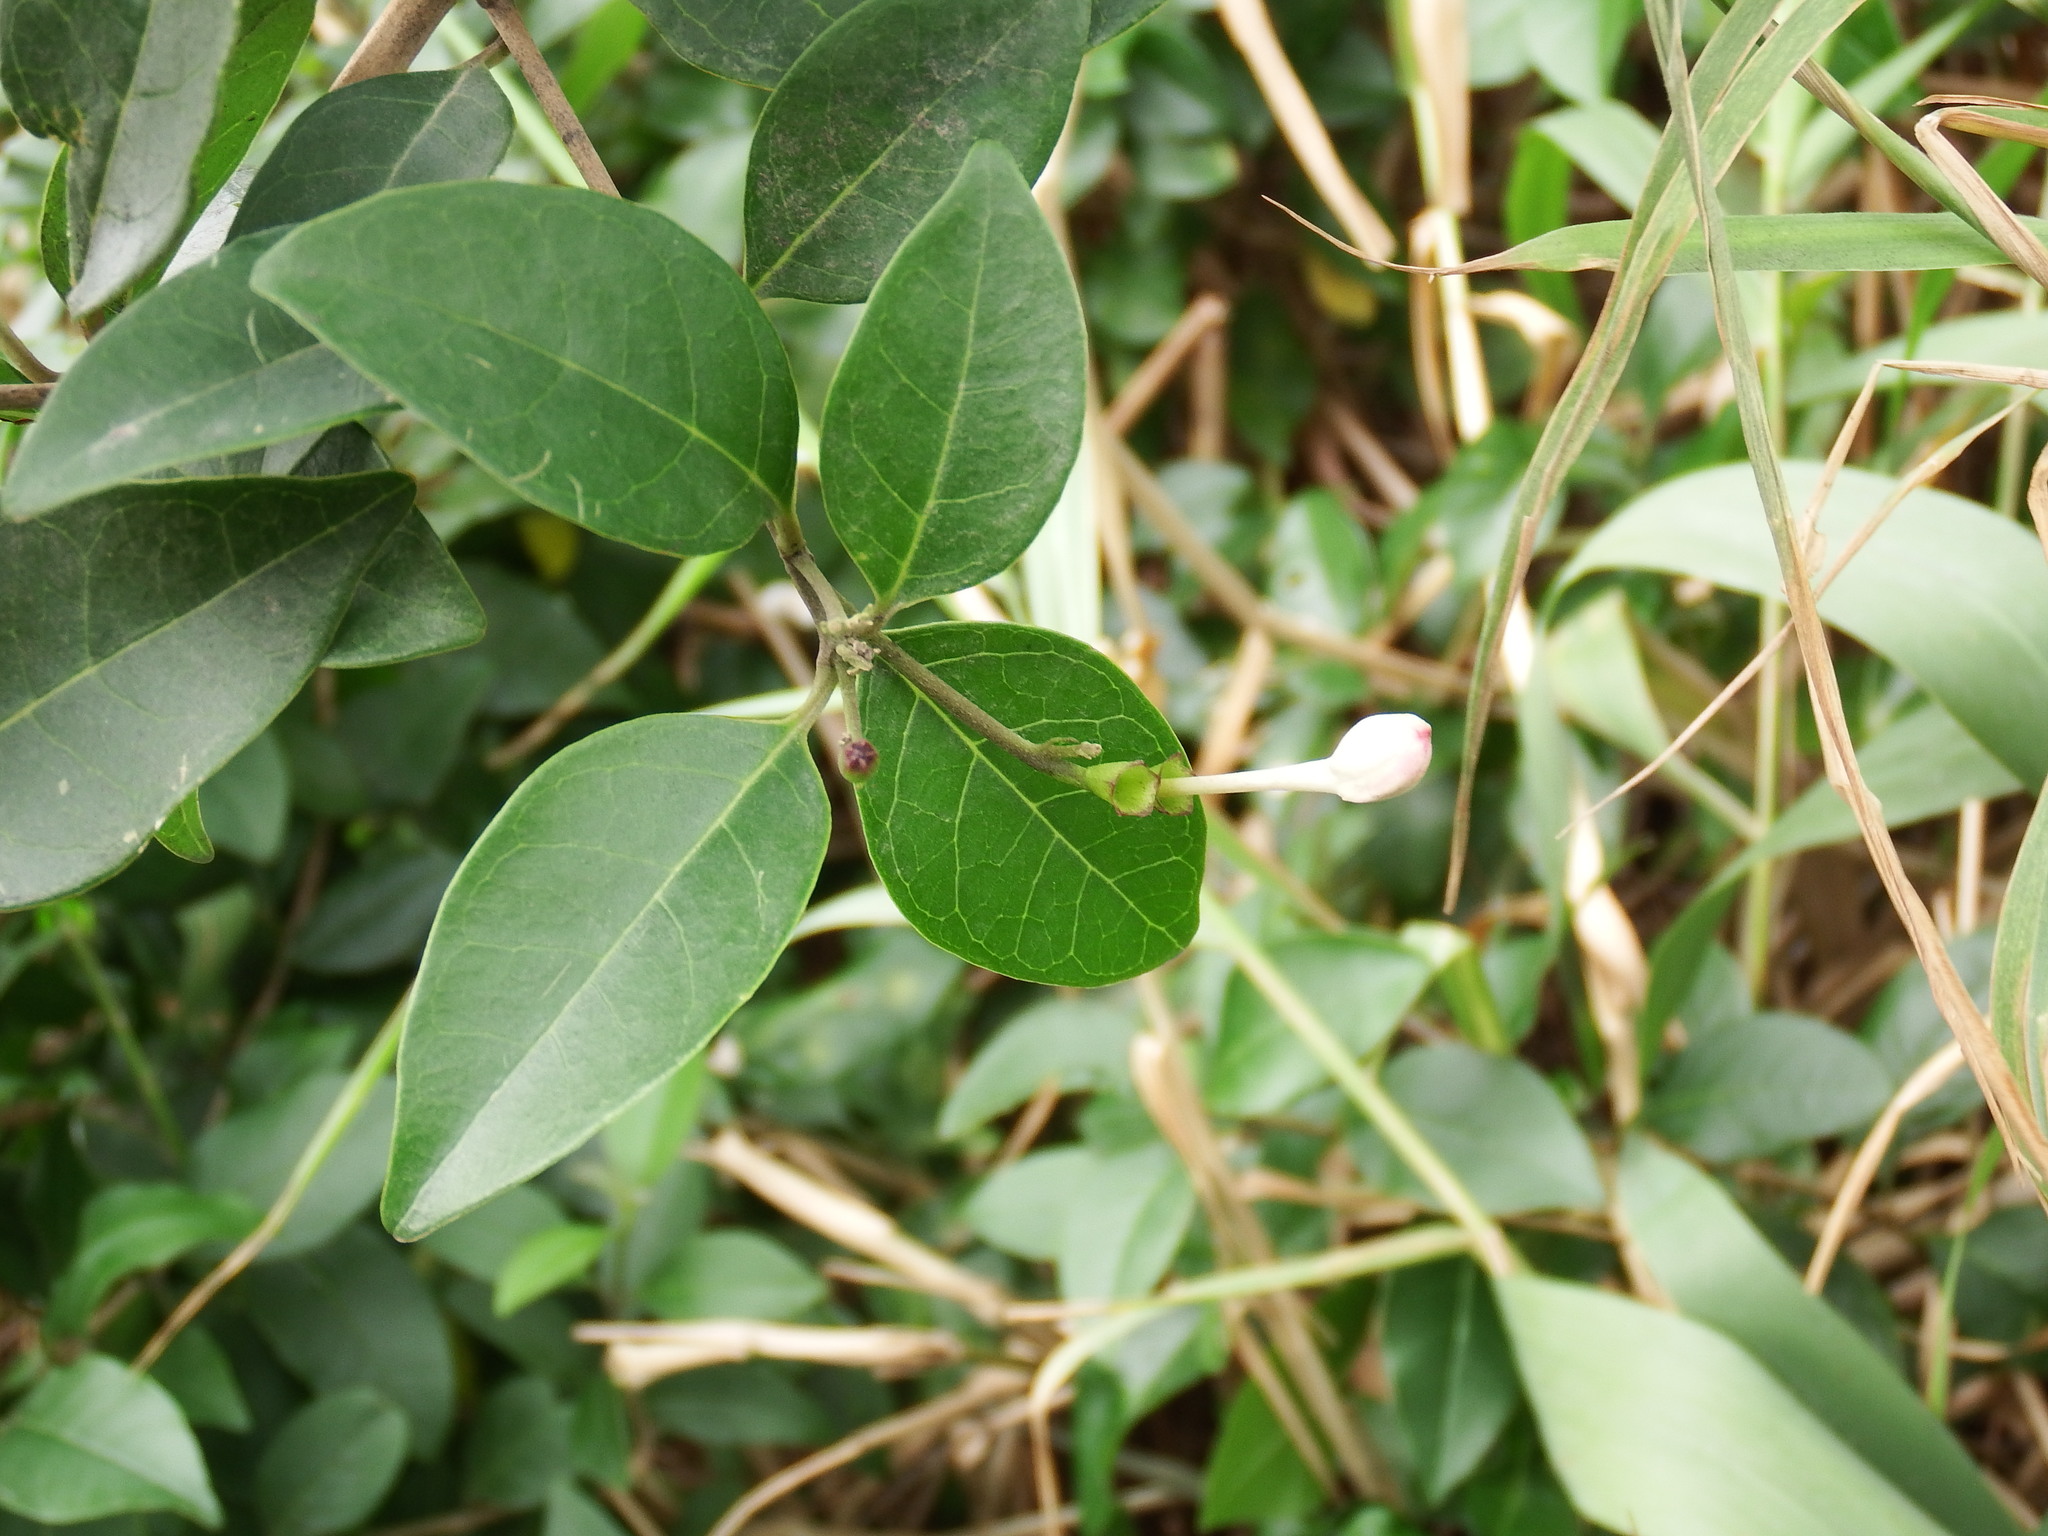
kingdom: Plantae
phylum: Tracheophyta
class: Magnoliopsida
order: Lamiales
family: Lamiaceae
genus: Volkameria
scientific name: Volkameria inermis
